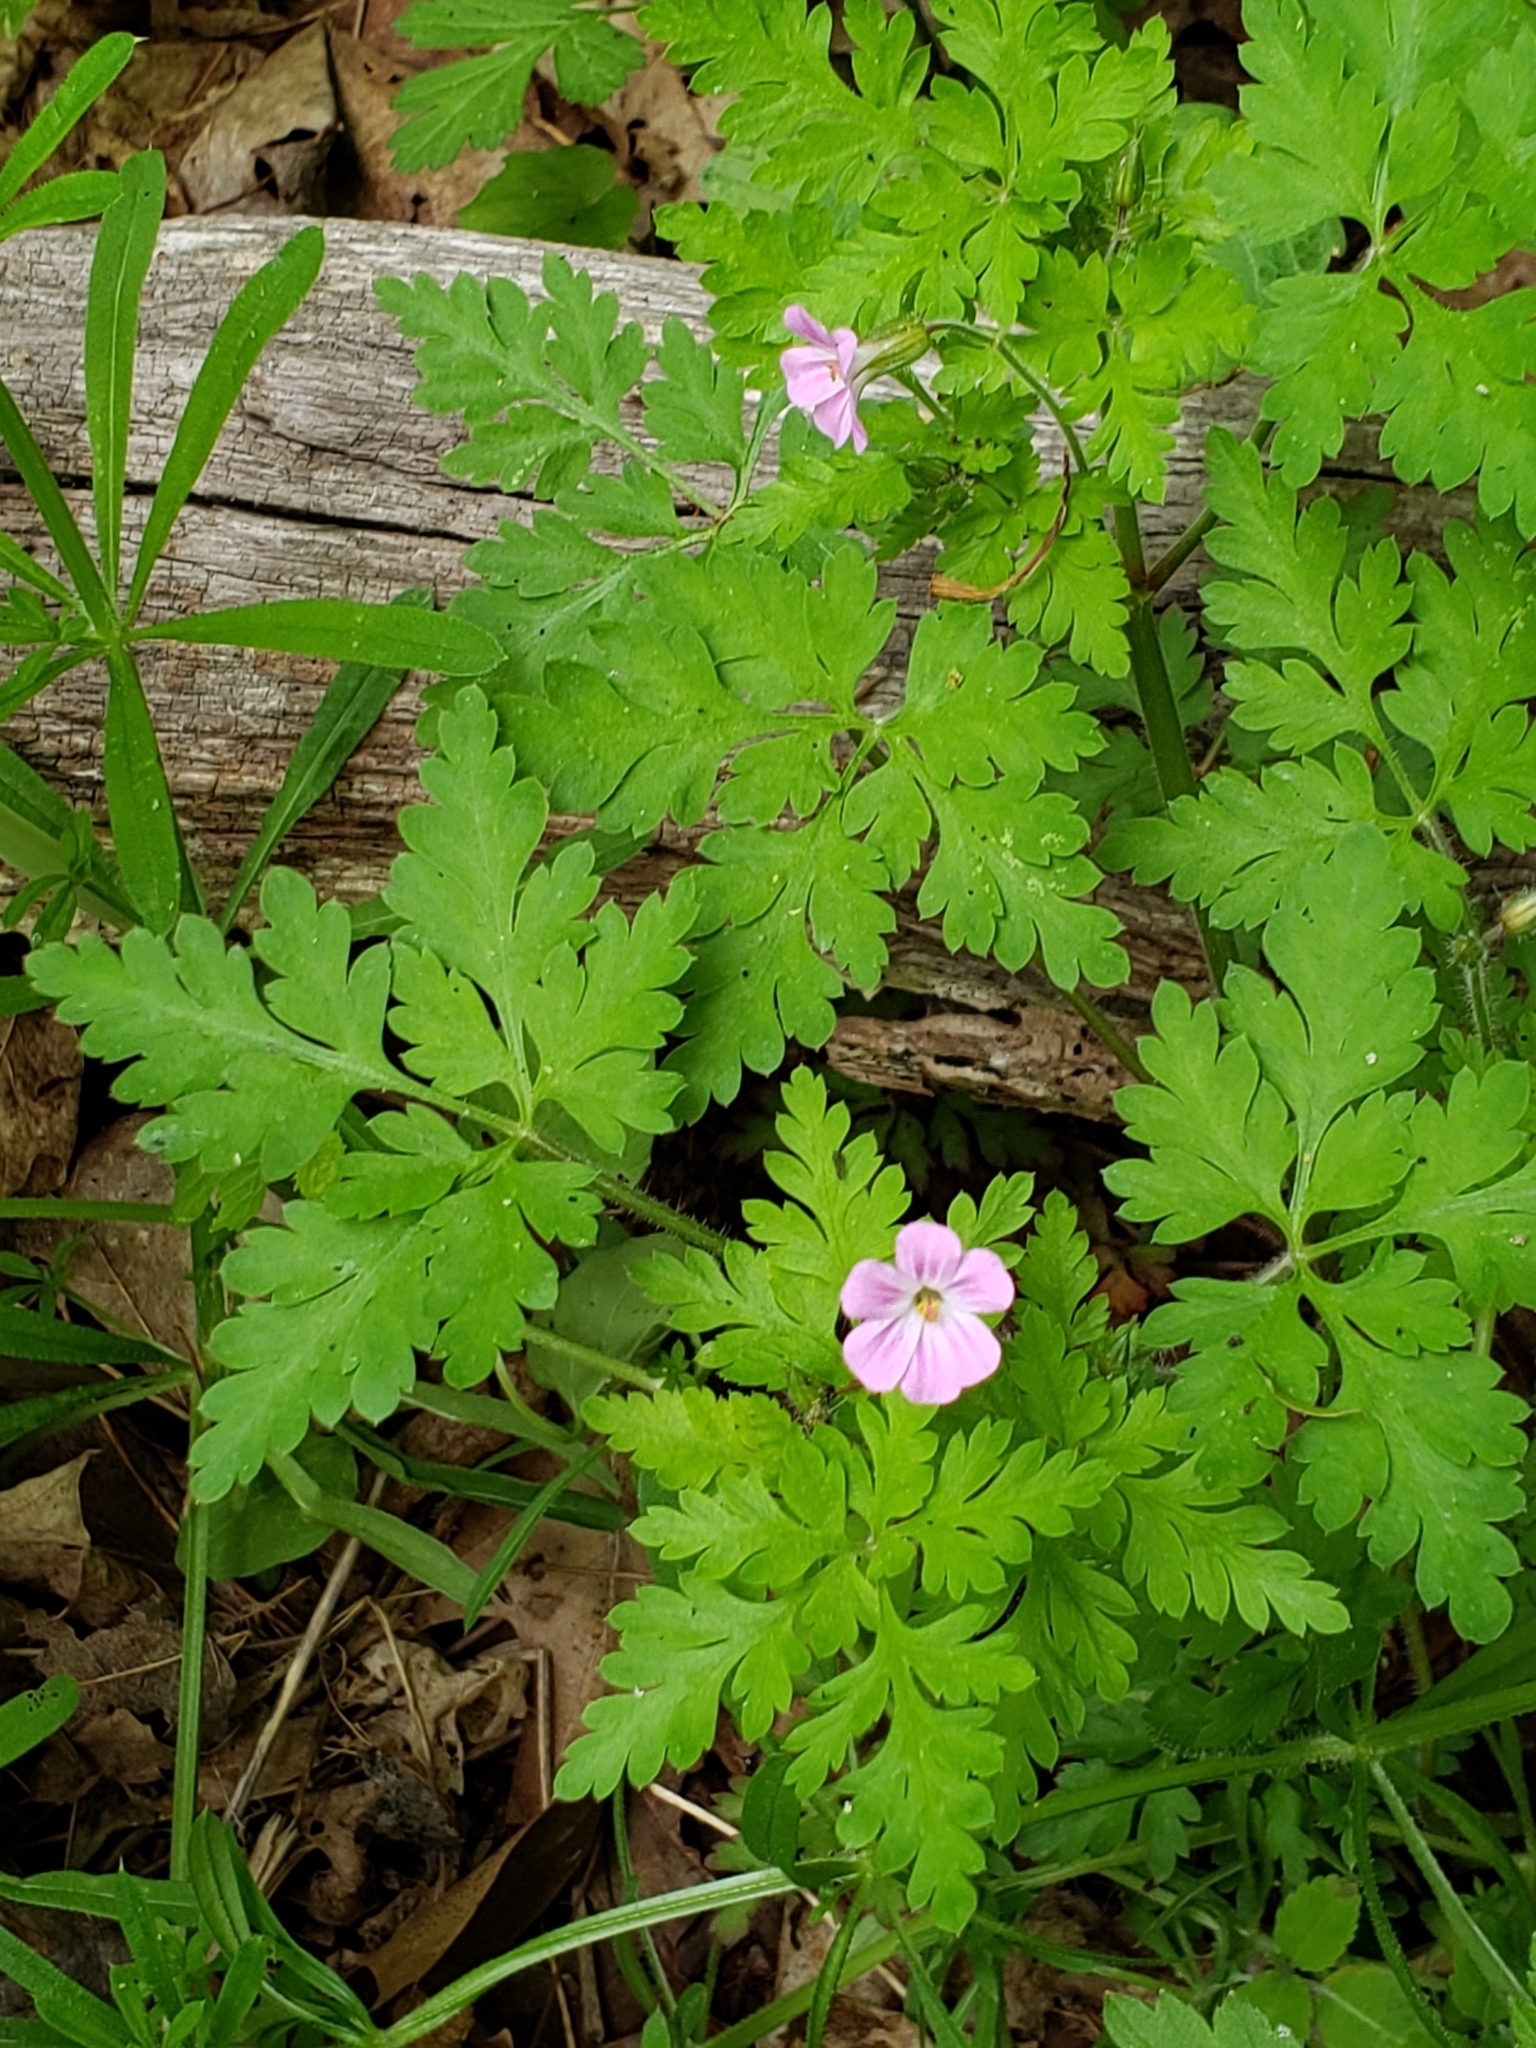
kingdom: Plantae
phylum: Tracheophyta
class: Magnoliopsida
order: Geraniales
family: Geraniaceae
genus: Geranium
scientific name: Geranium robertianum
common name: Herb-robert
